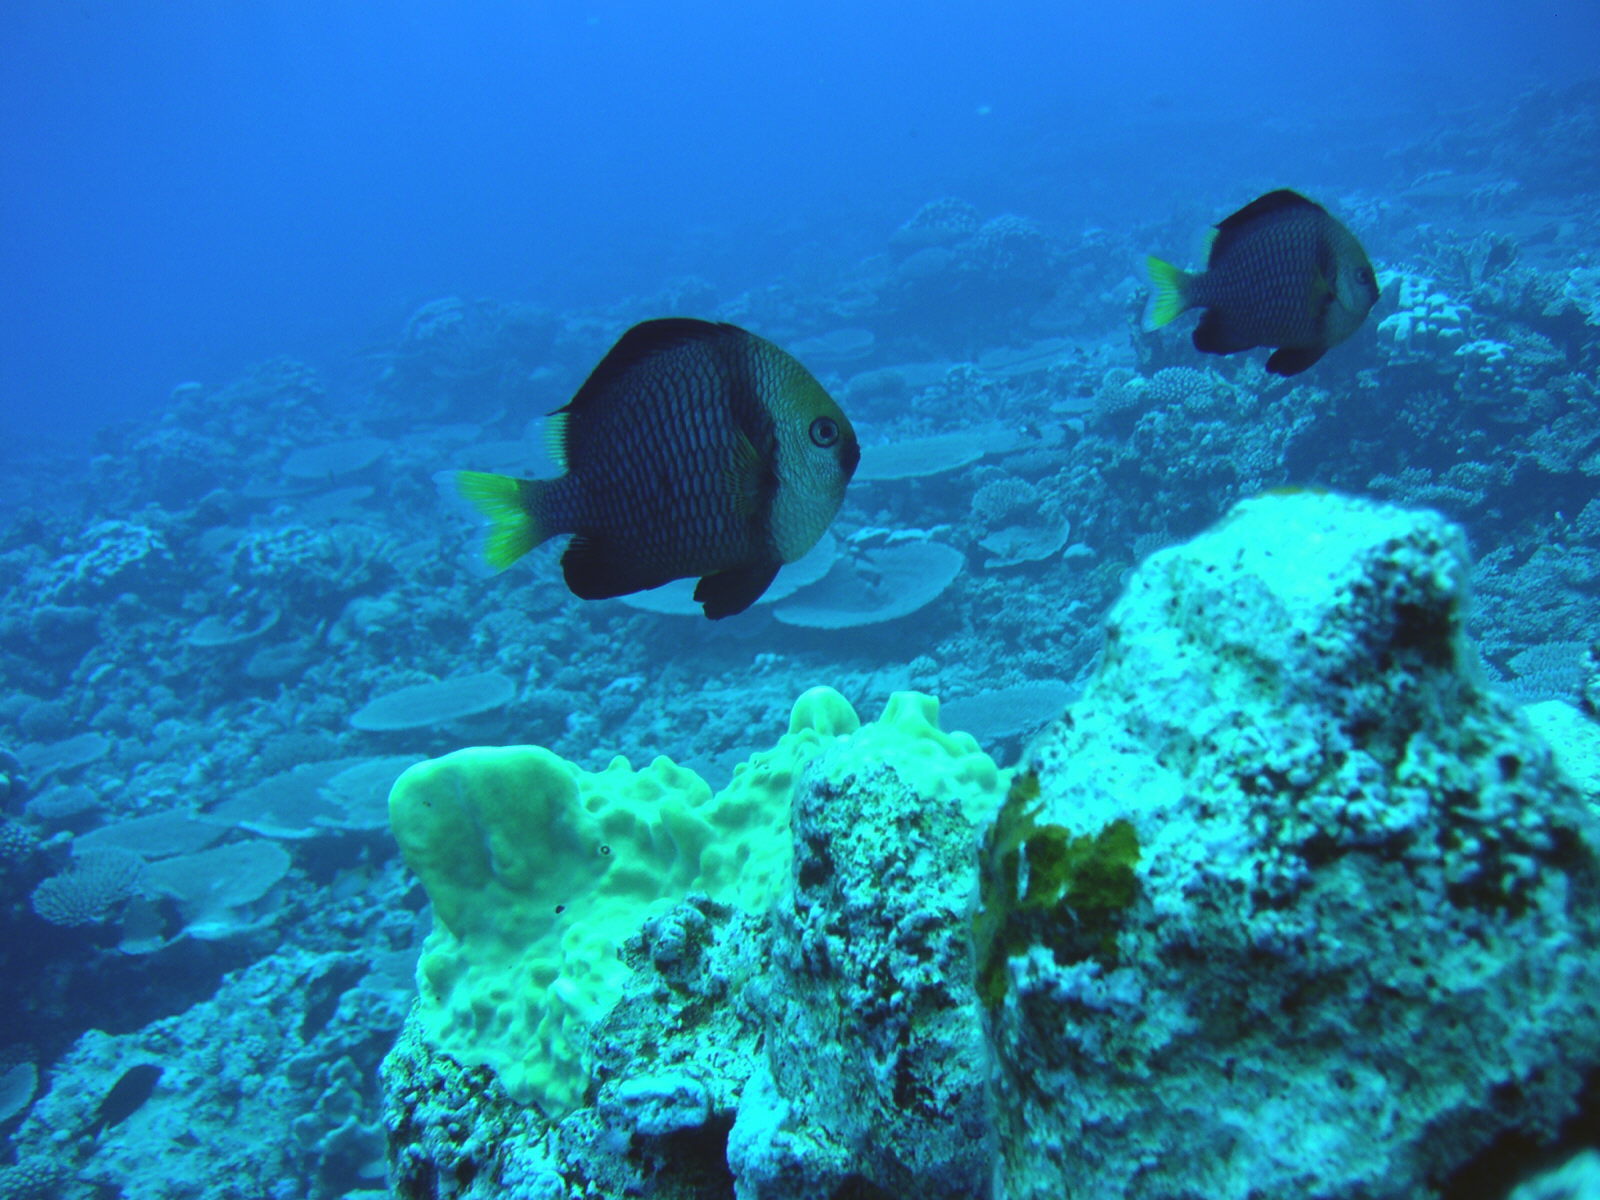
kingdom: Animalia
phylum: Chordata
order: Perciformes
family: Pomacentridae
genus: Dascyllus
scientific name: Dascyllus flavicaudus
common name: Yellow-tailed dascyllus
